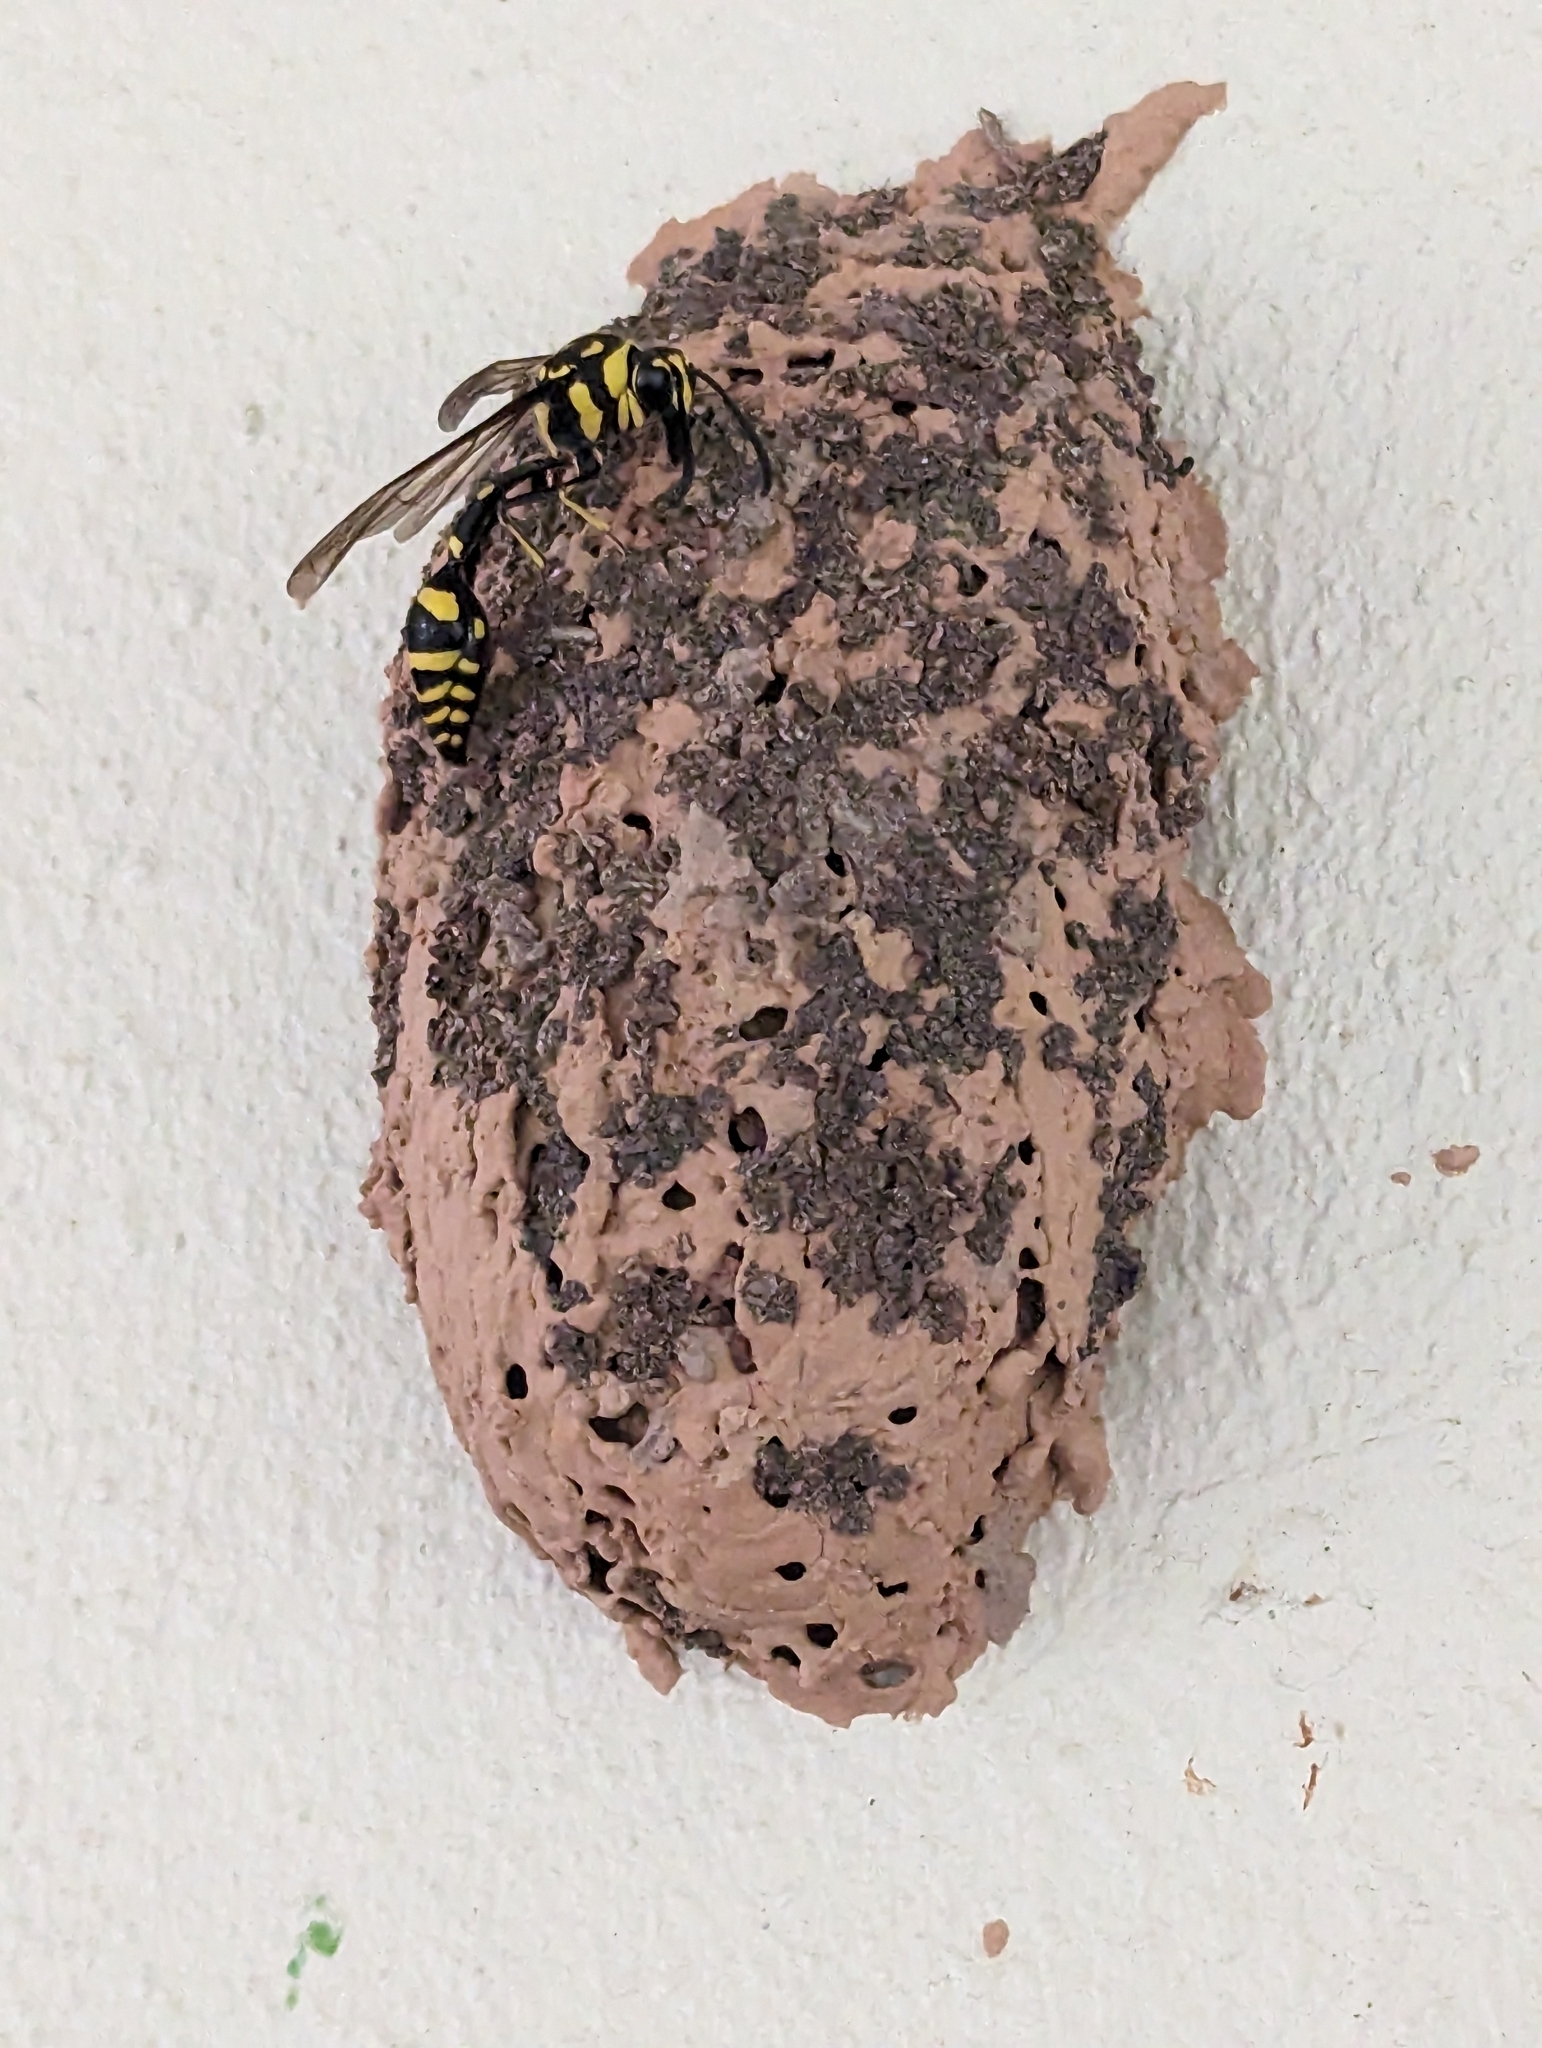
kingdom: Animalia
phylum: Arthropoda
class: Insecta
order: Hymenoptera
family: Eumenidae
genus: Phimenes
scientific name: Phimenes arcuatus
